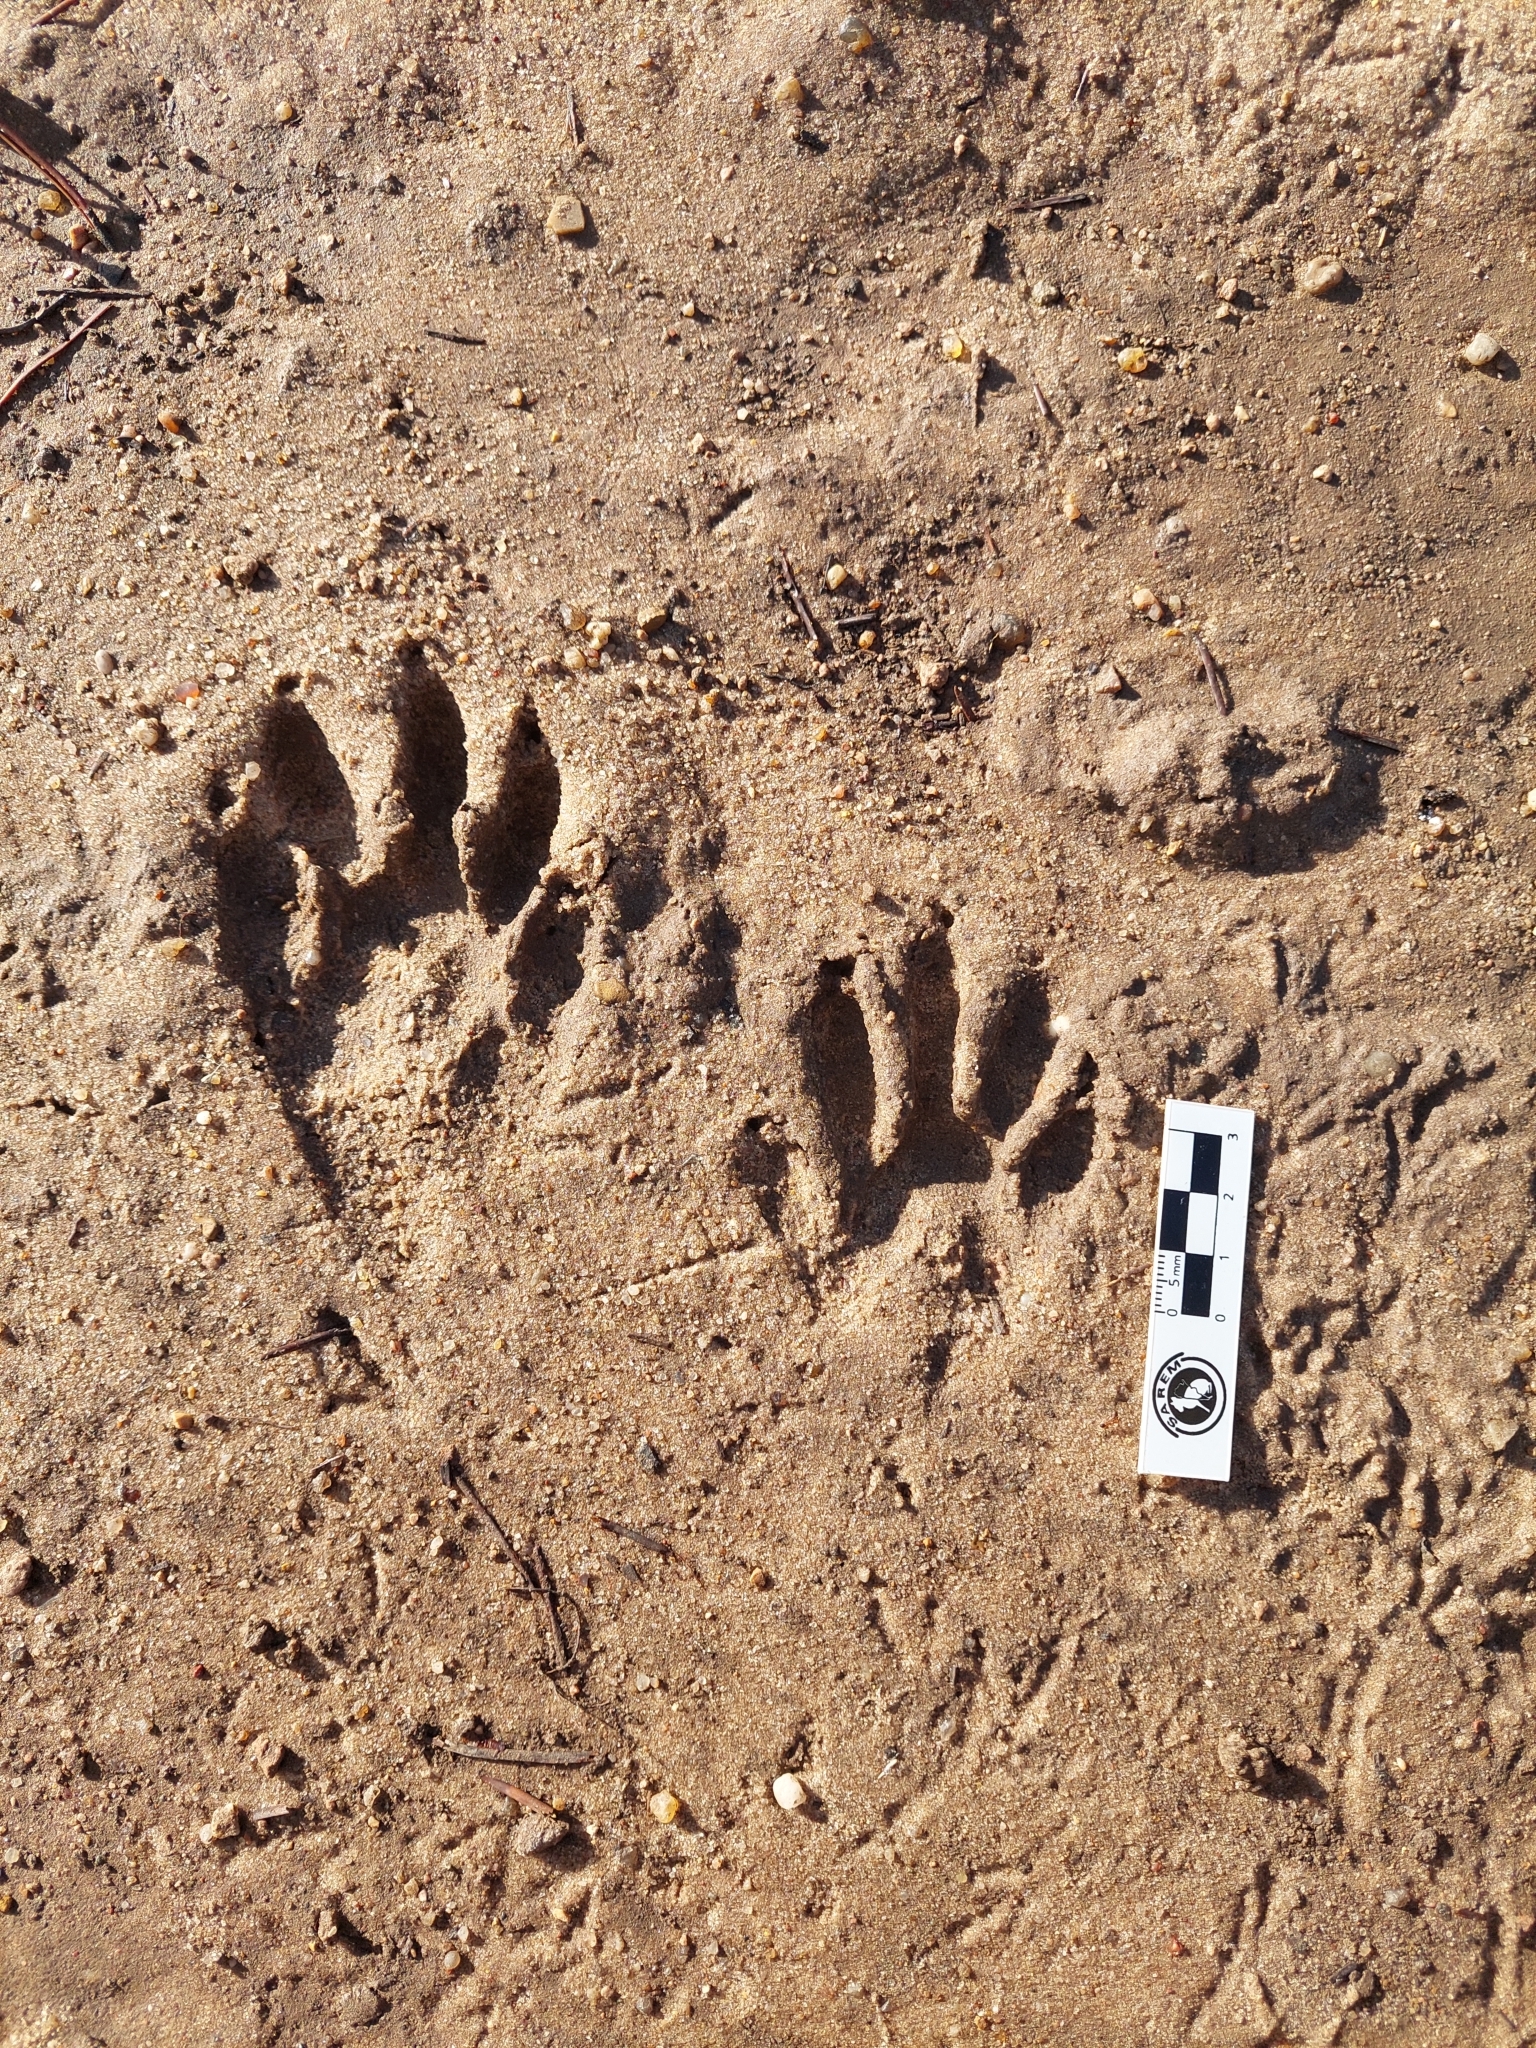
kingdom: Animalia
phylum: Chordata
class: Mammalia
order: Carnivora
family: Procyonidae
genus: Procyon
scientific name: Procyon cancrivorus
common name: Crab-eating raccoon
